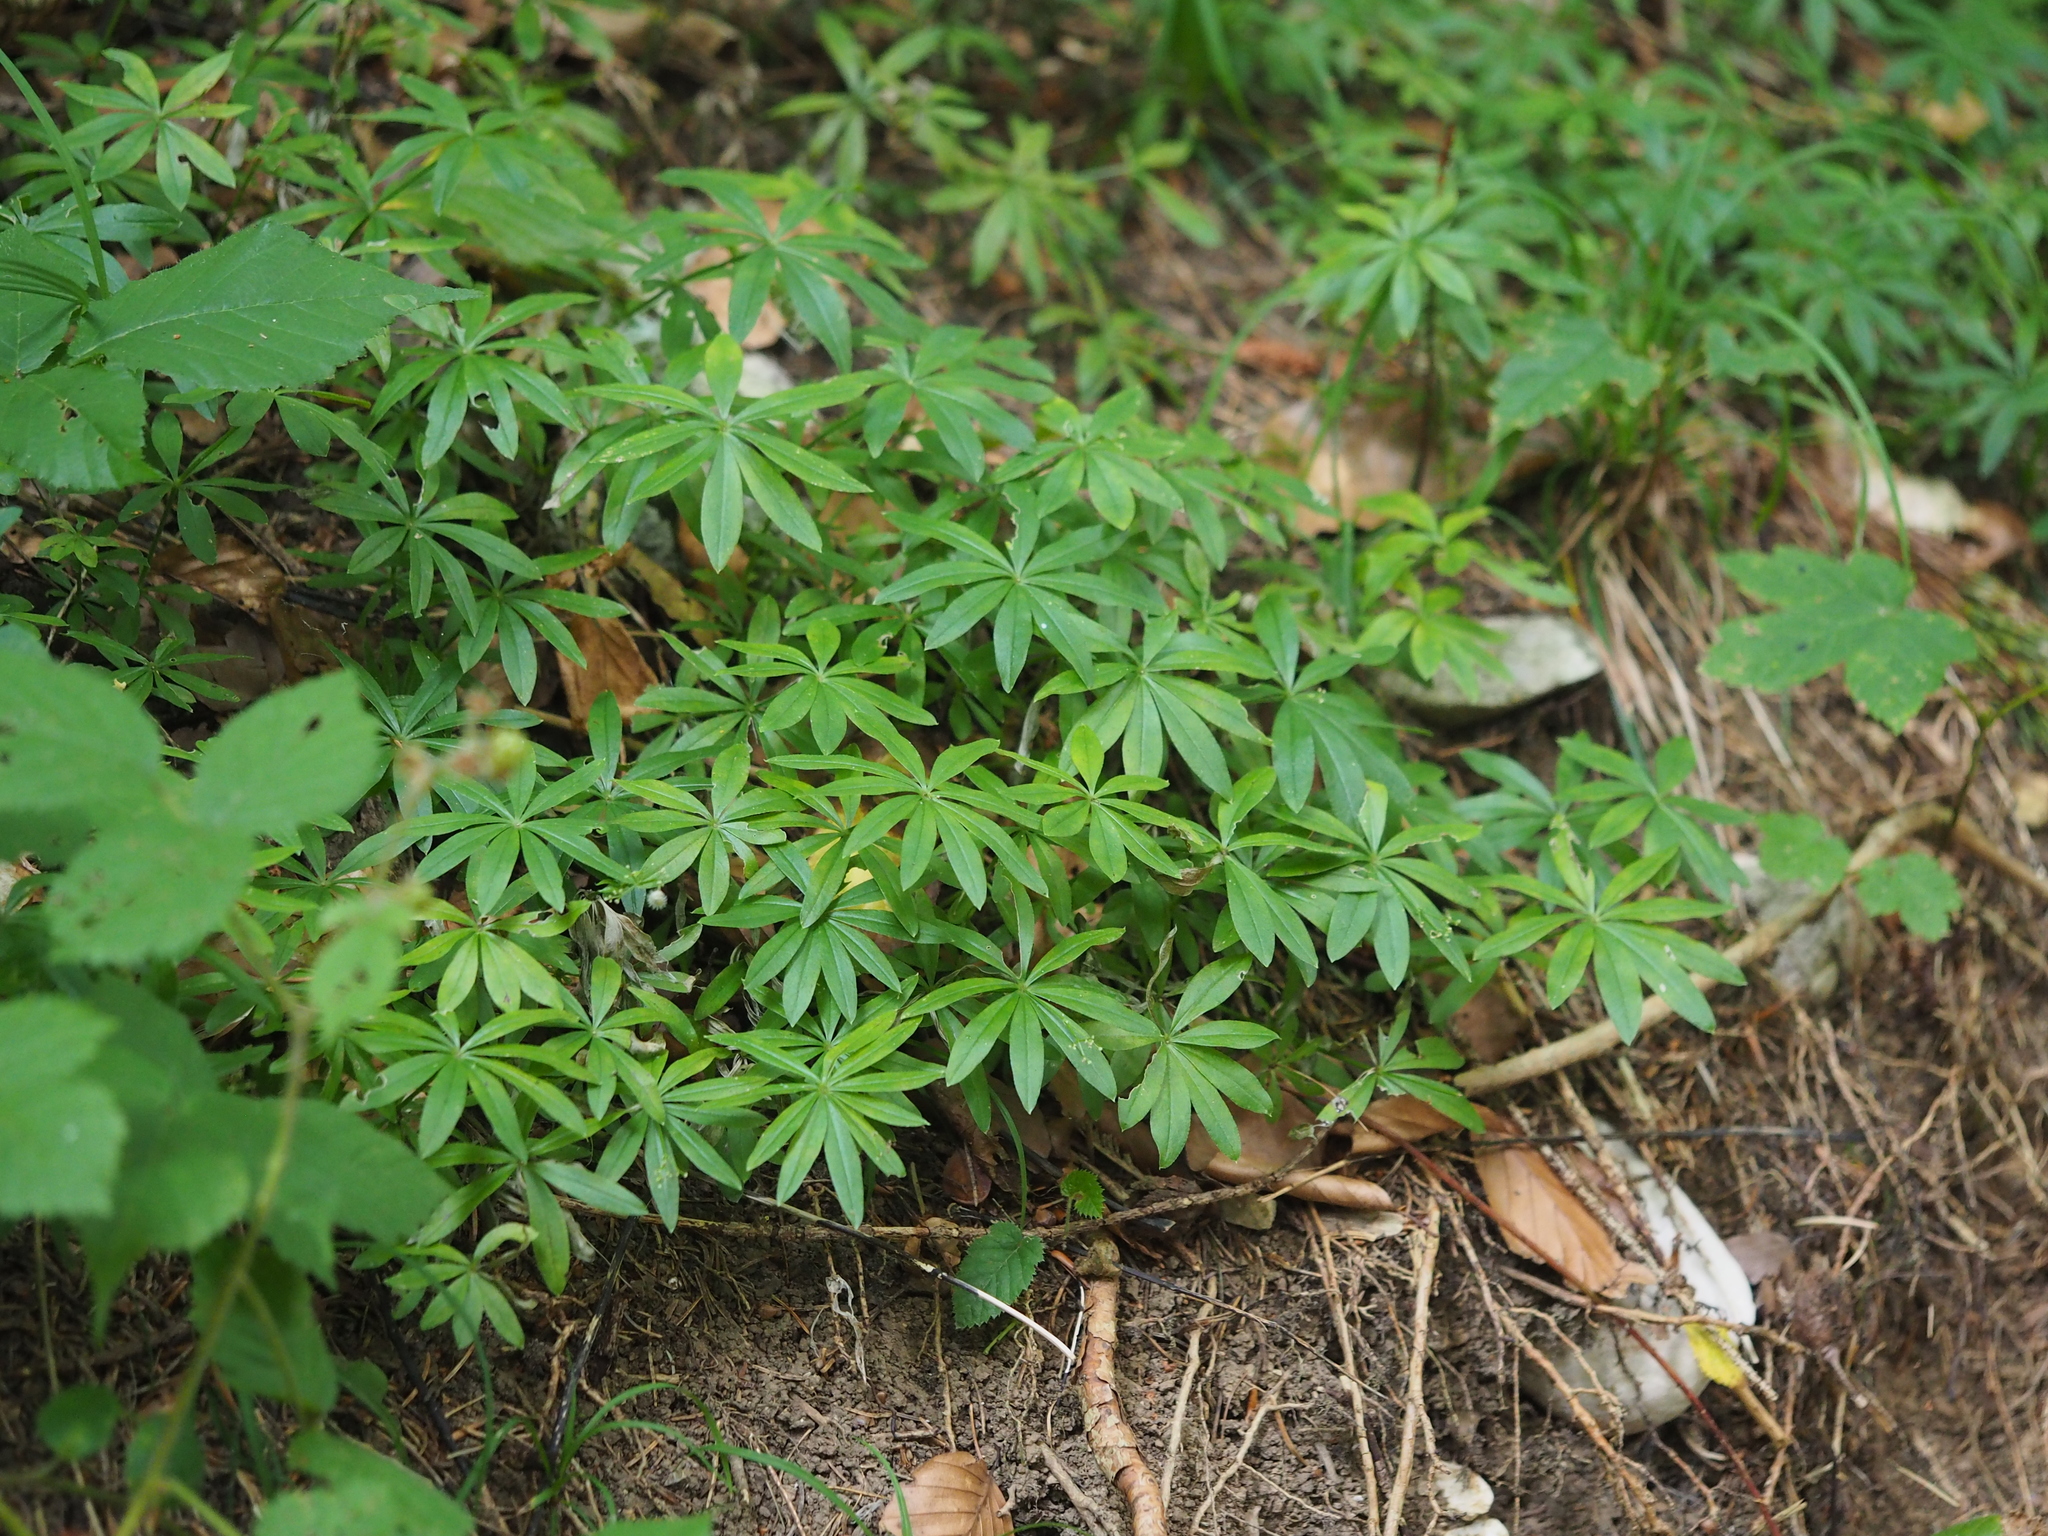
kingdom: Plantae
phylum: Tracheophyta
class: Magnoliopsida
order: Gentianales
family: Rubiaceae
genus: Galium
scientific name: Galium odoratum
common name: Sweet woodruff
